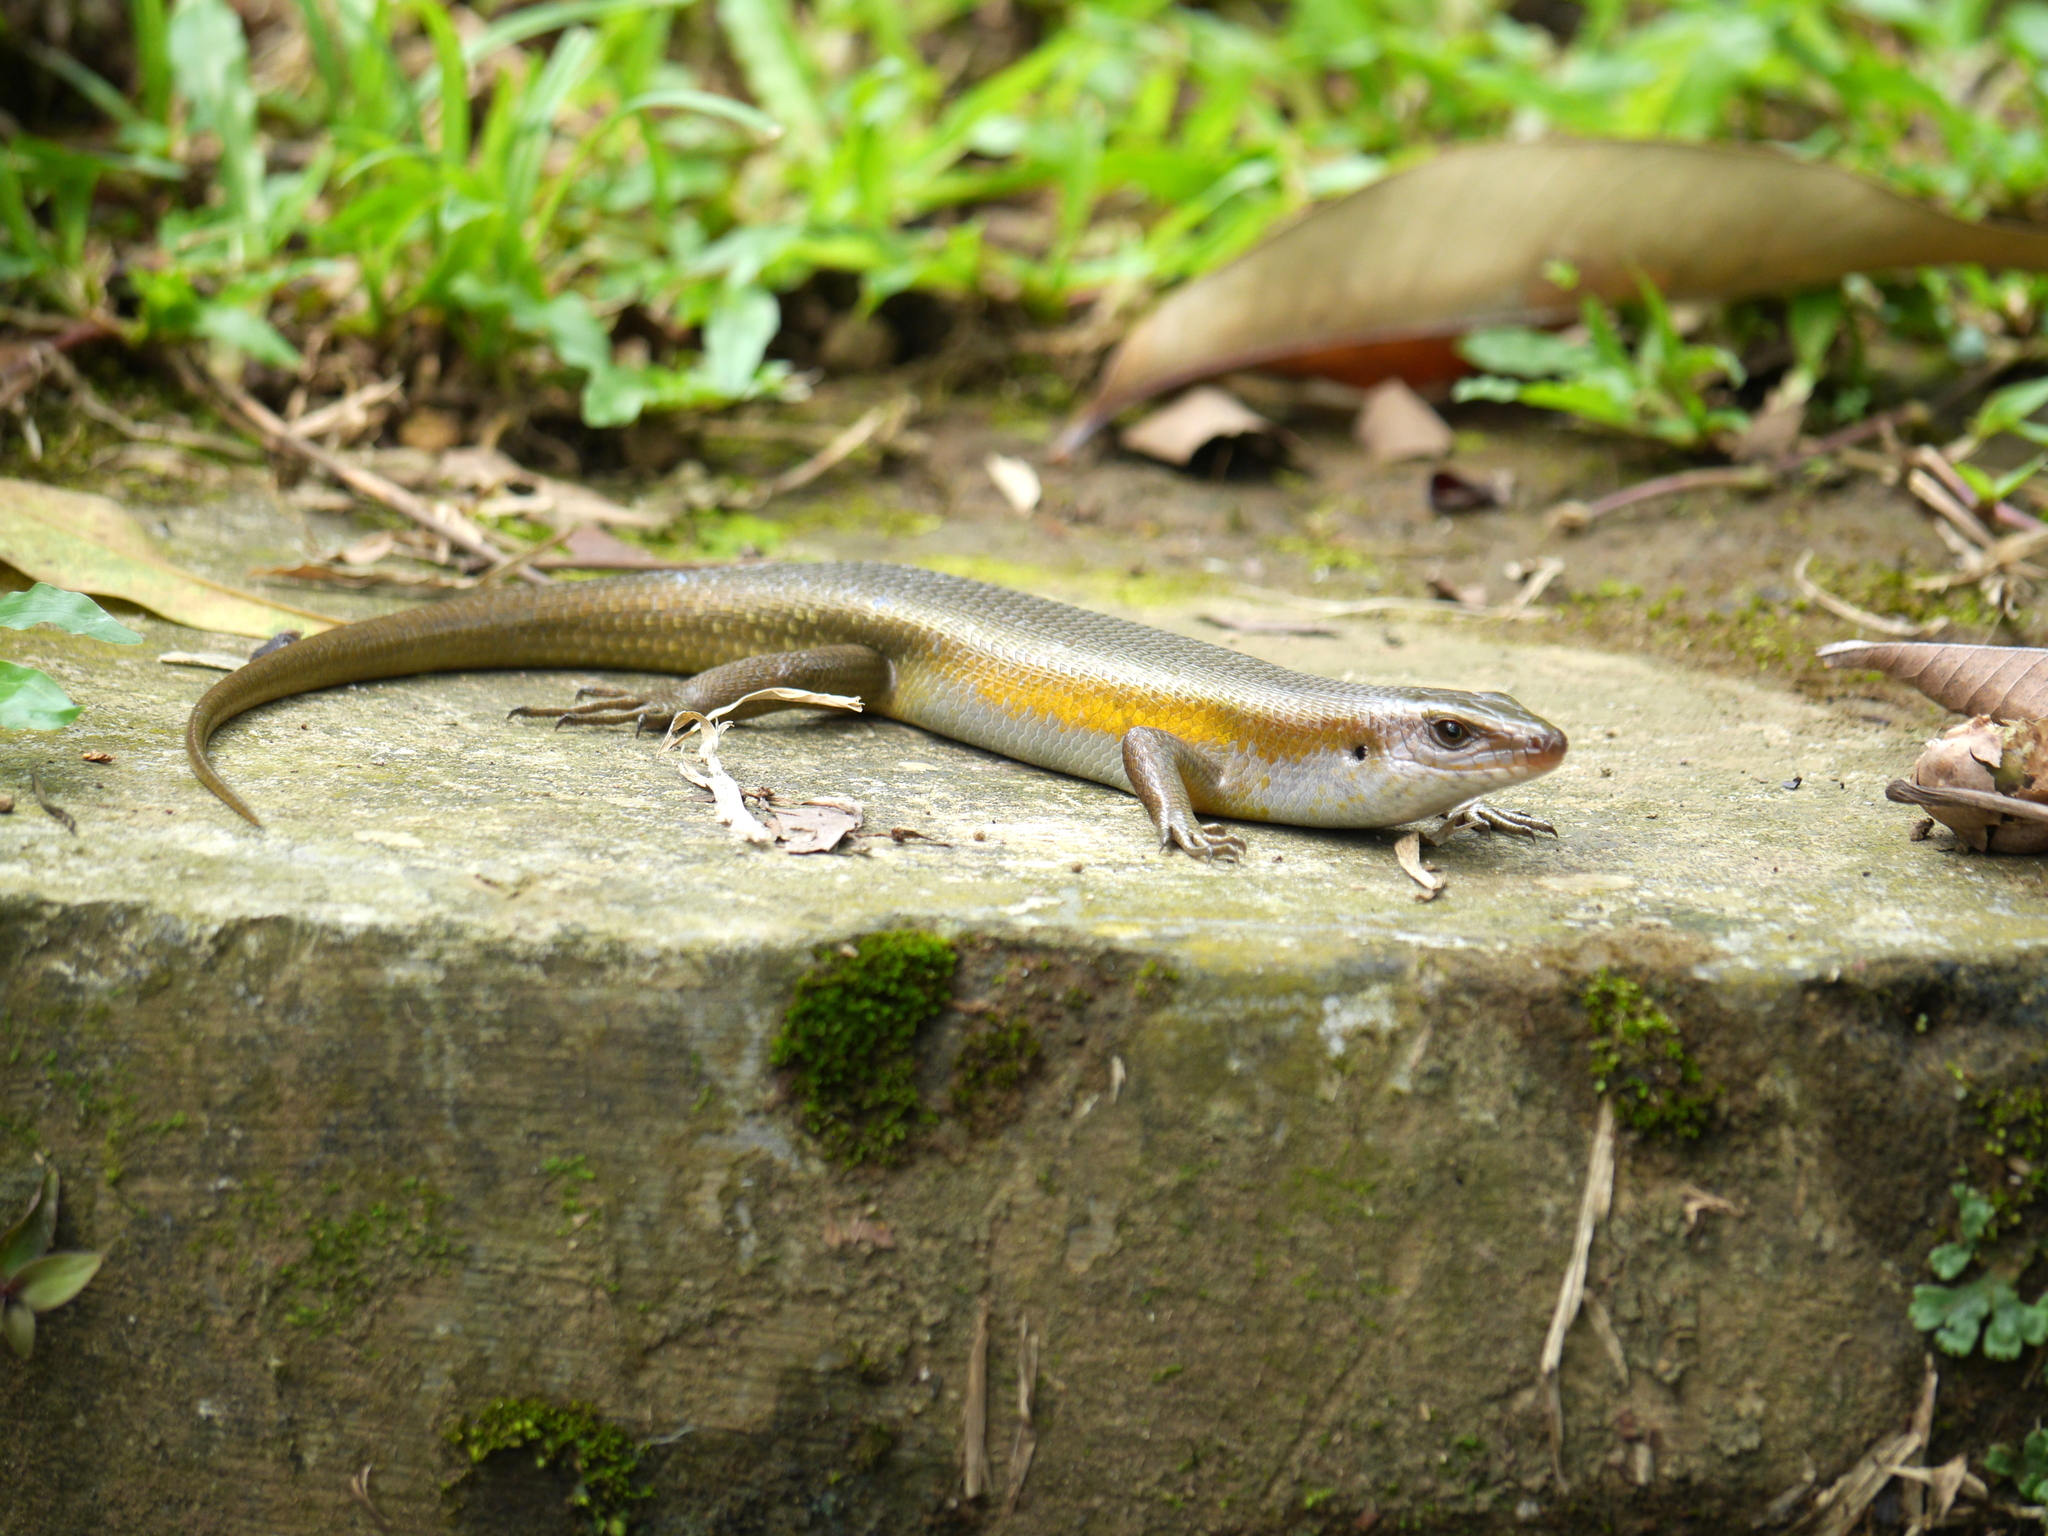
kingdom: Animalia
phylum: Chordata
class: Squamata
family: Scincidae
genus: Eutropis
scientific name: Eutropis multifasciata
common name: Common mabuya
